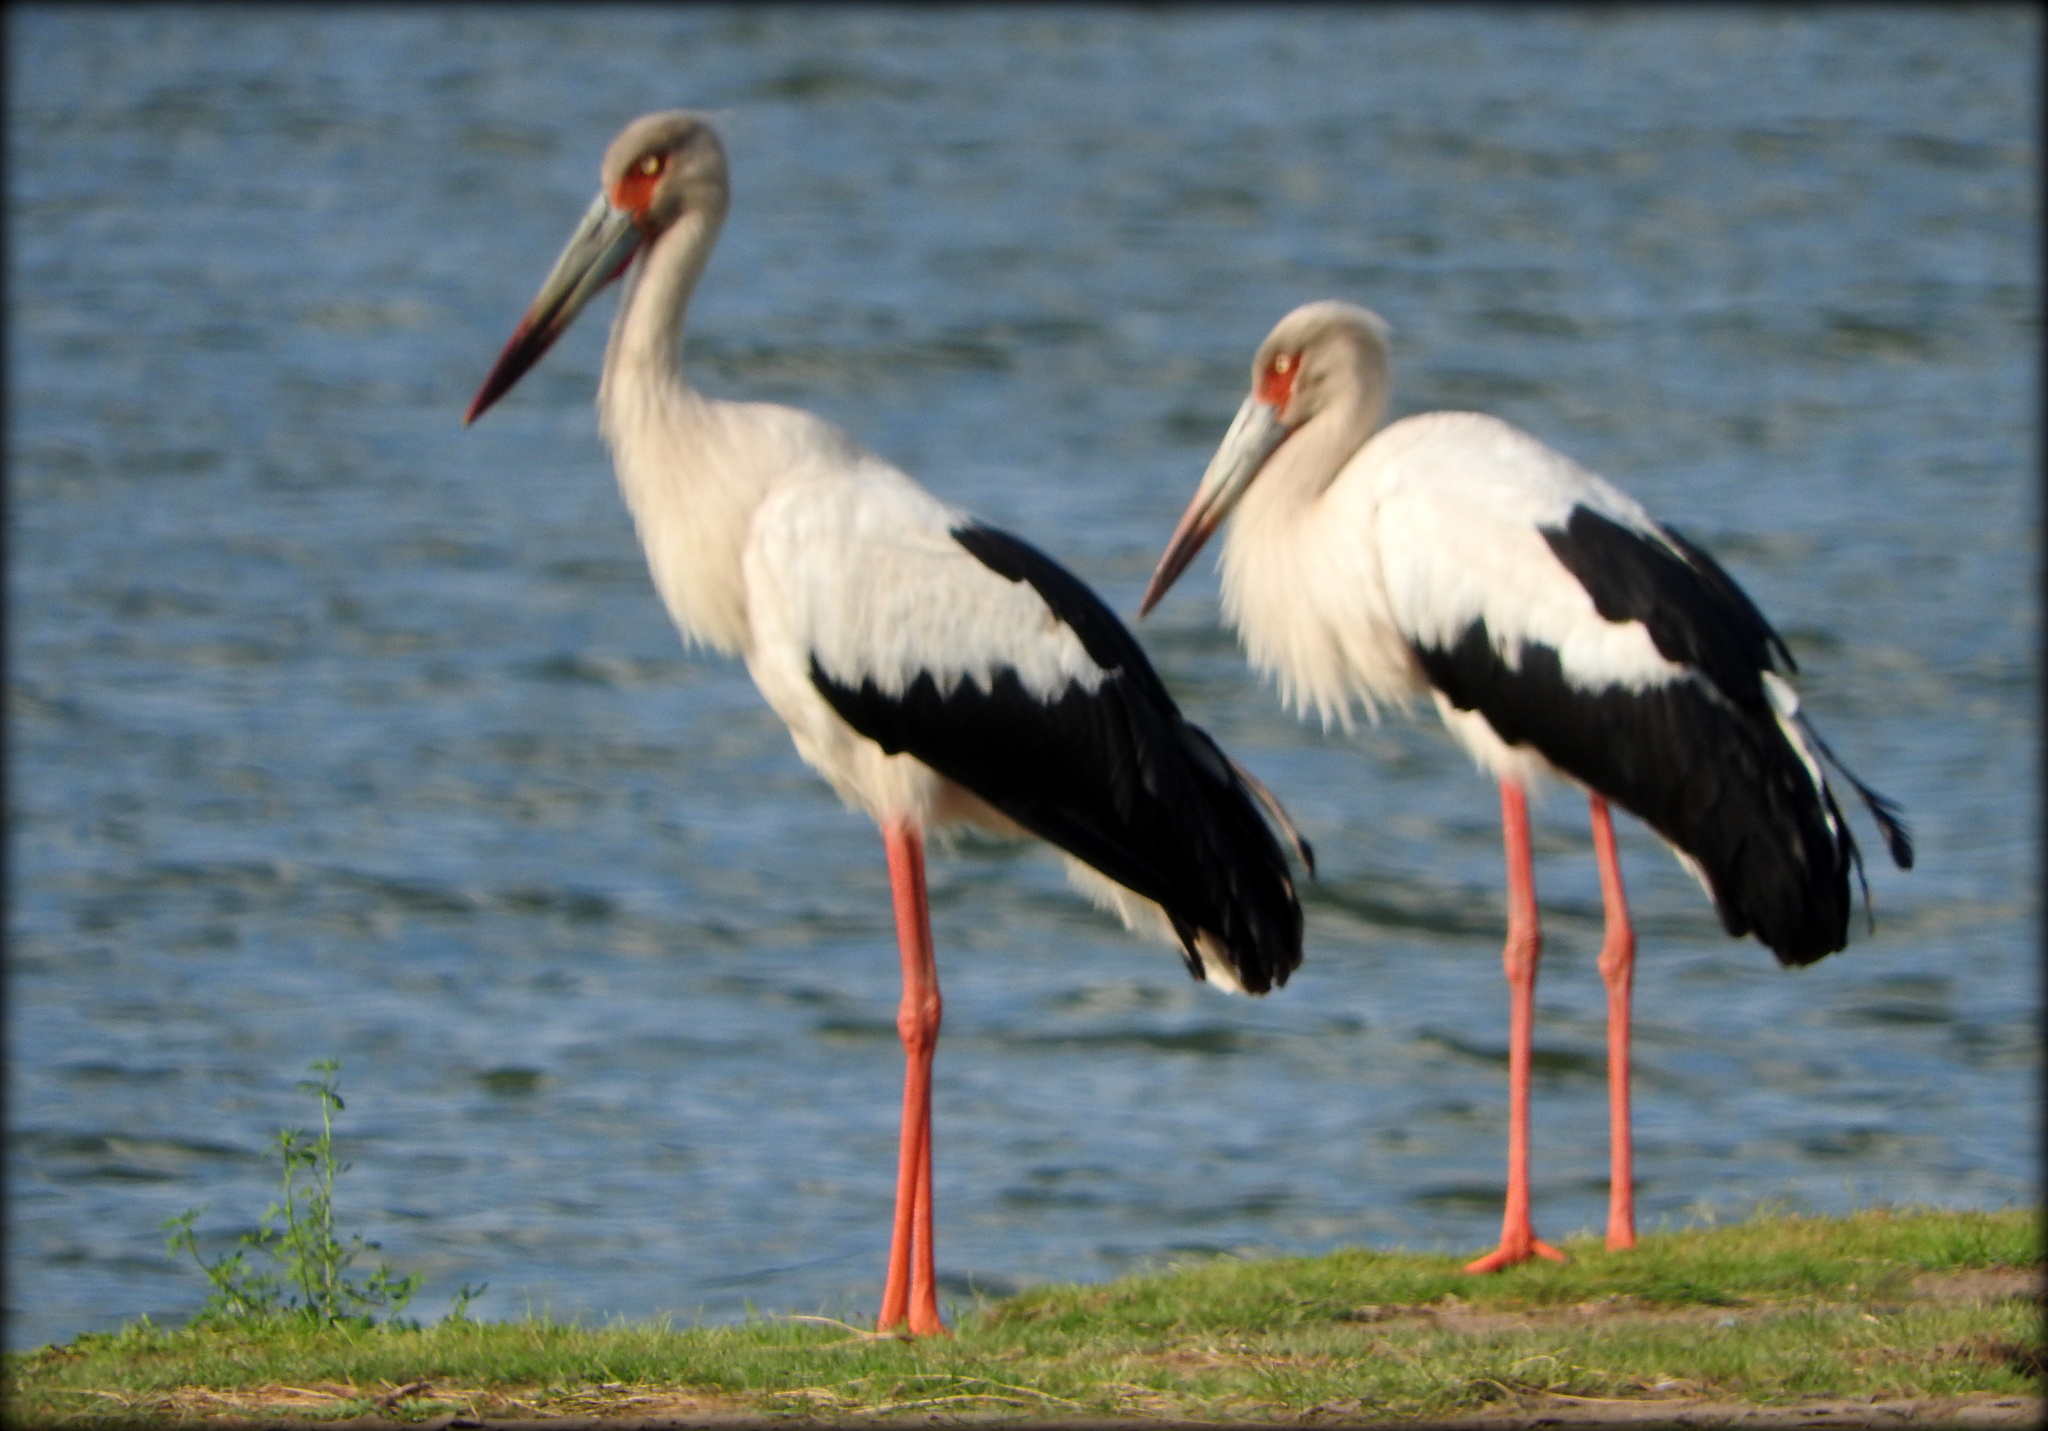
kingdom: Animalia
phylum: Chordata
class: Aves
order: Ciconiiformes
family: Ciconiidae
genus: Ciconia
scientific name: Ciconia maguari
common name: Maguari stork
